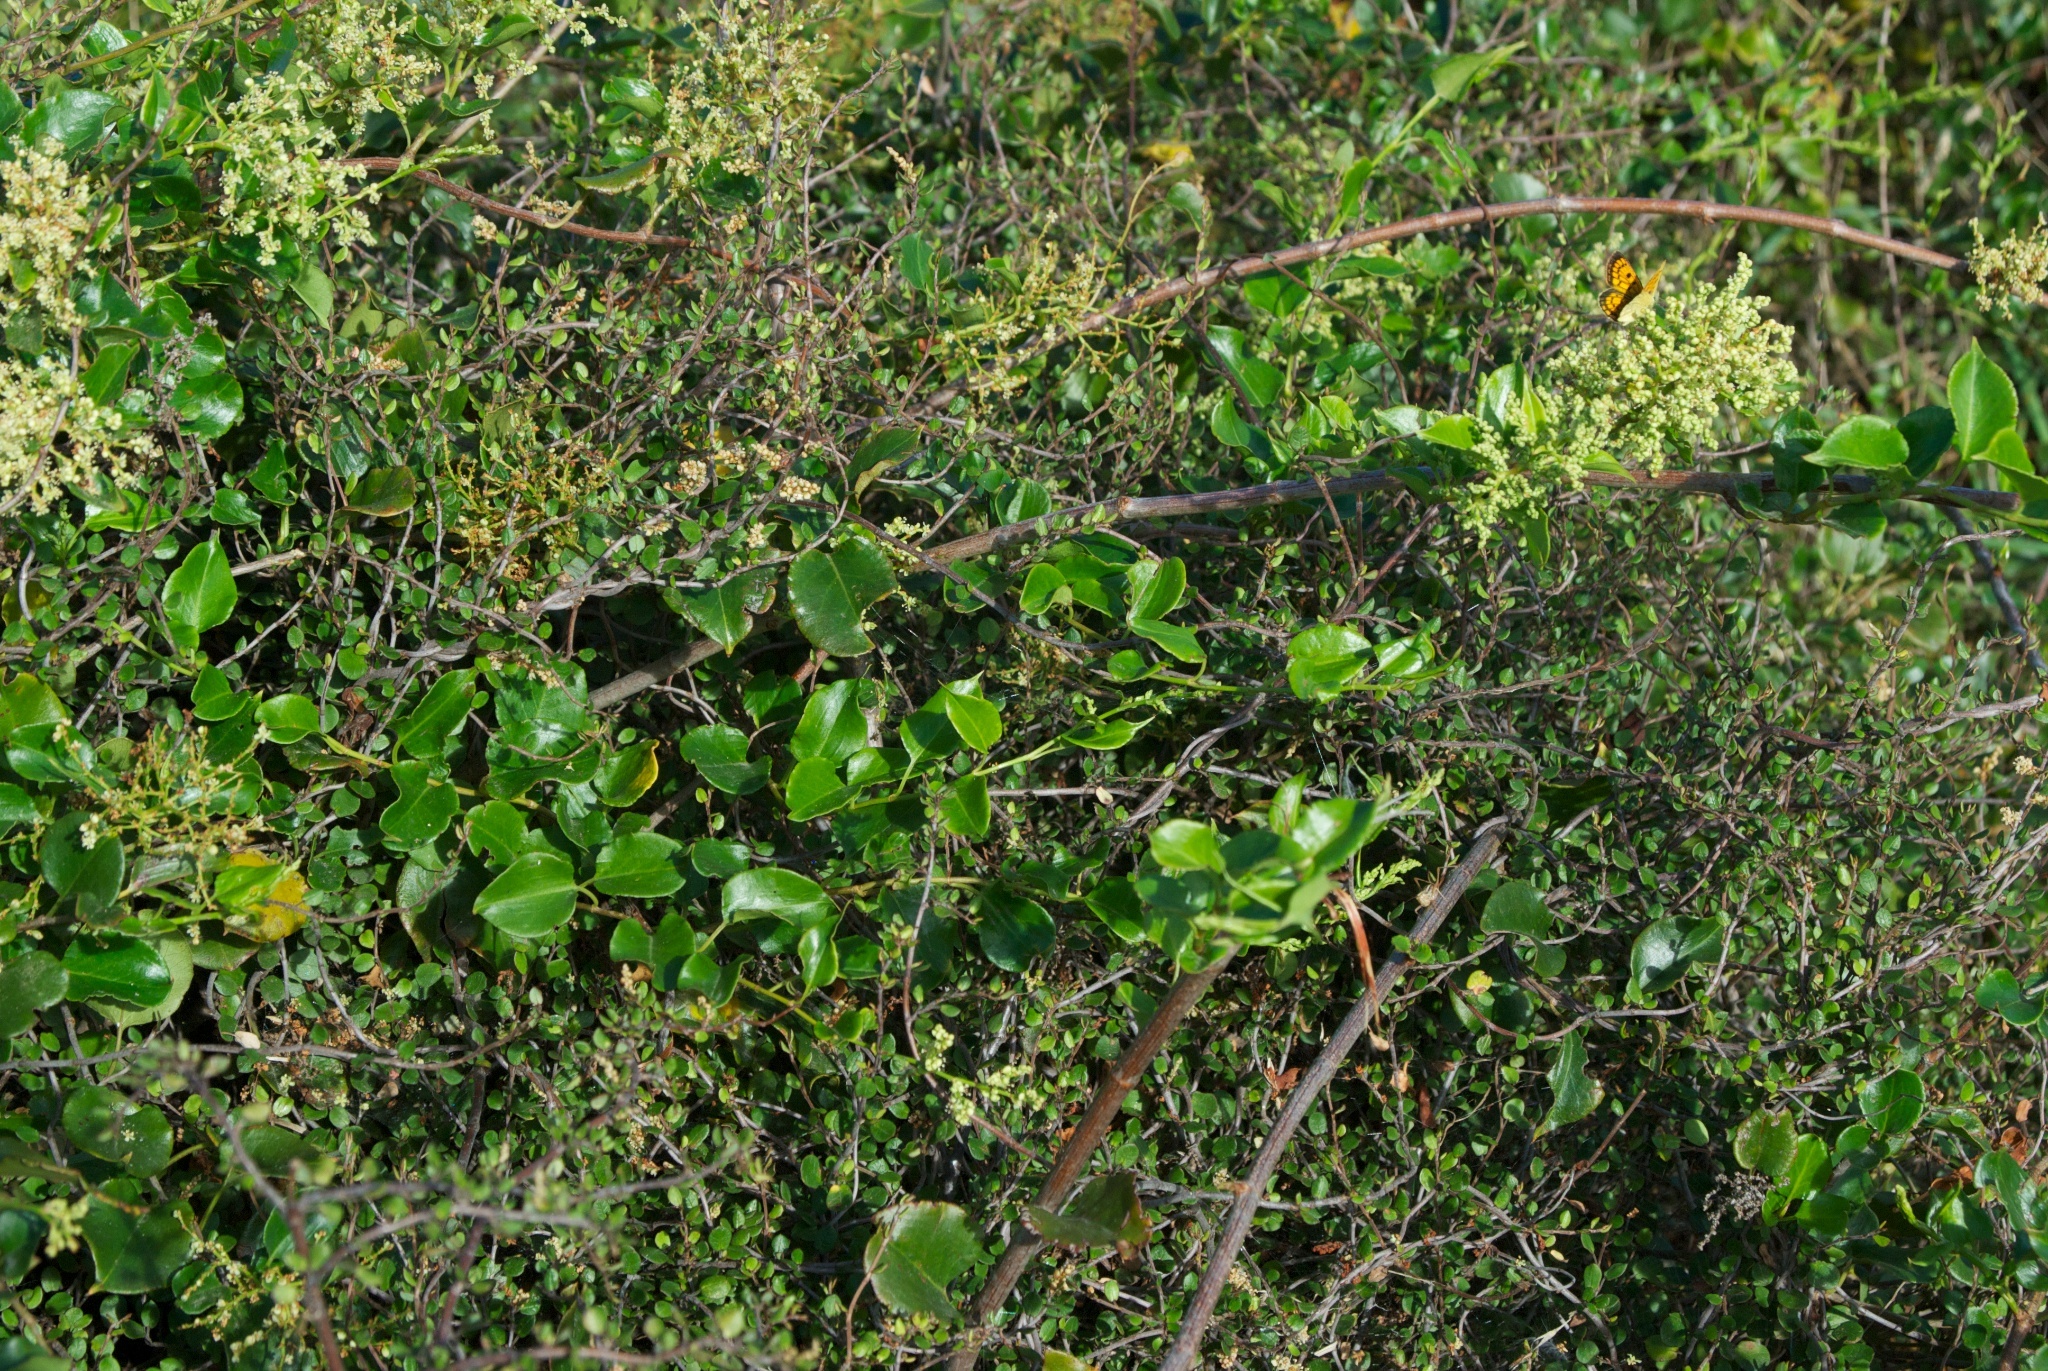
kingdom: Plantae
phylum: Tracheophyta
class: Magnoliopsida
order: Caryophyllales
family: Polygonaceae
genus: Muehlenbeckia
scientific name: Muehlenbeckia australis
